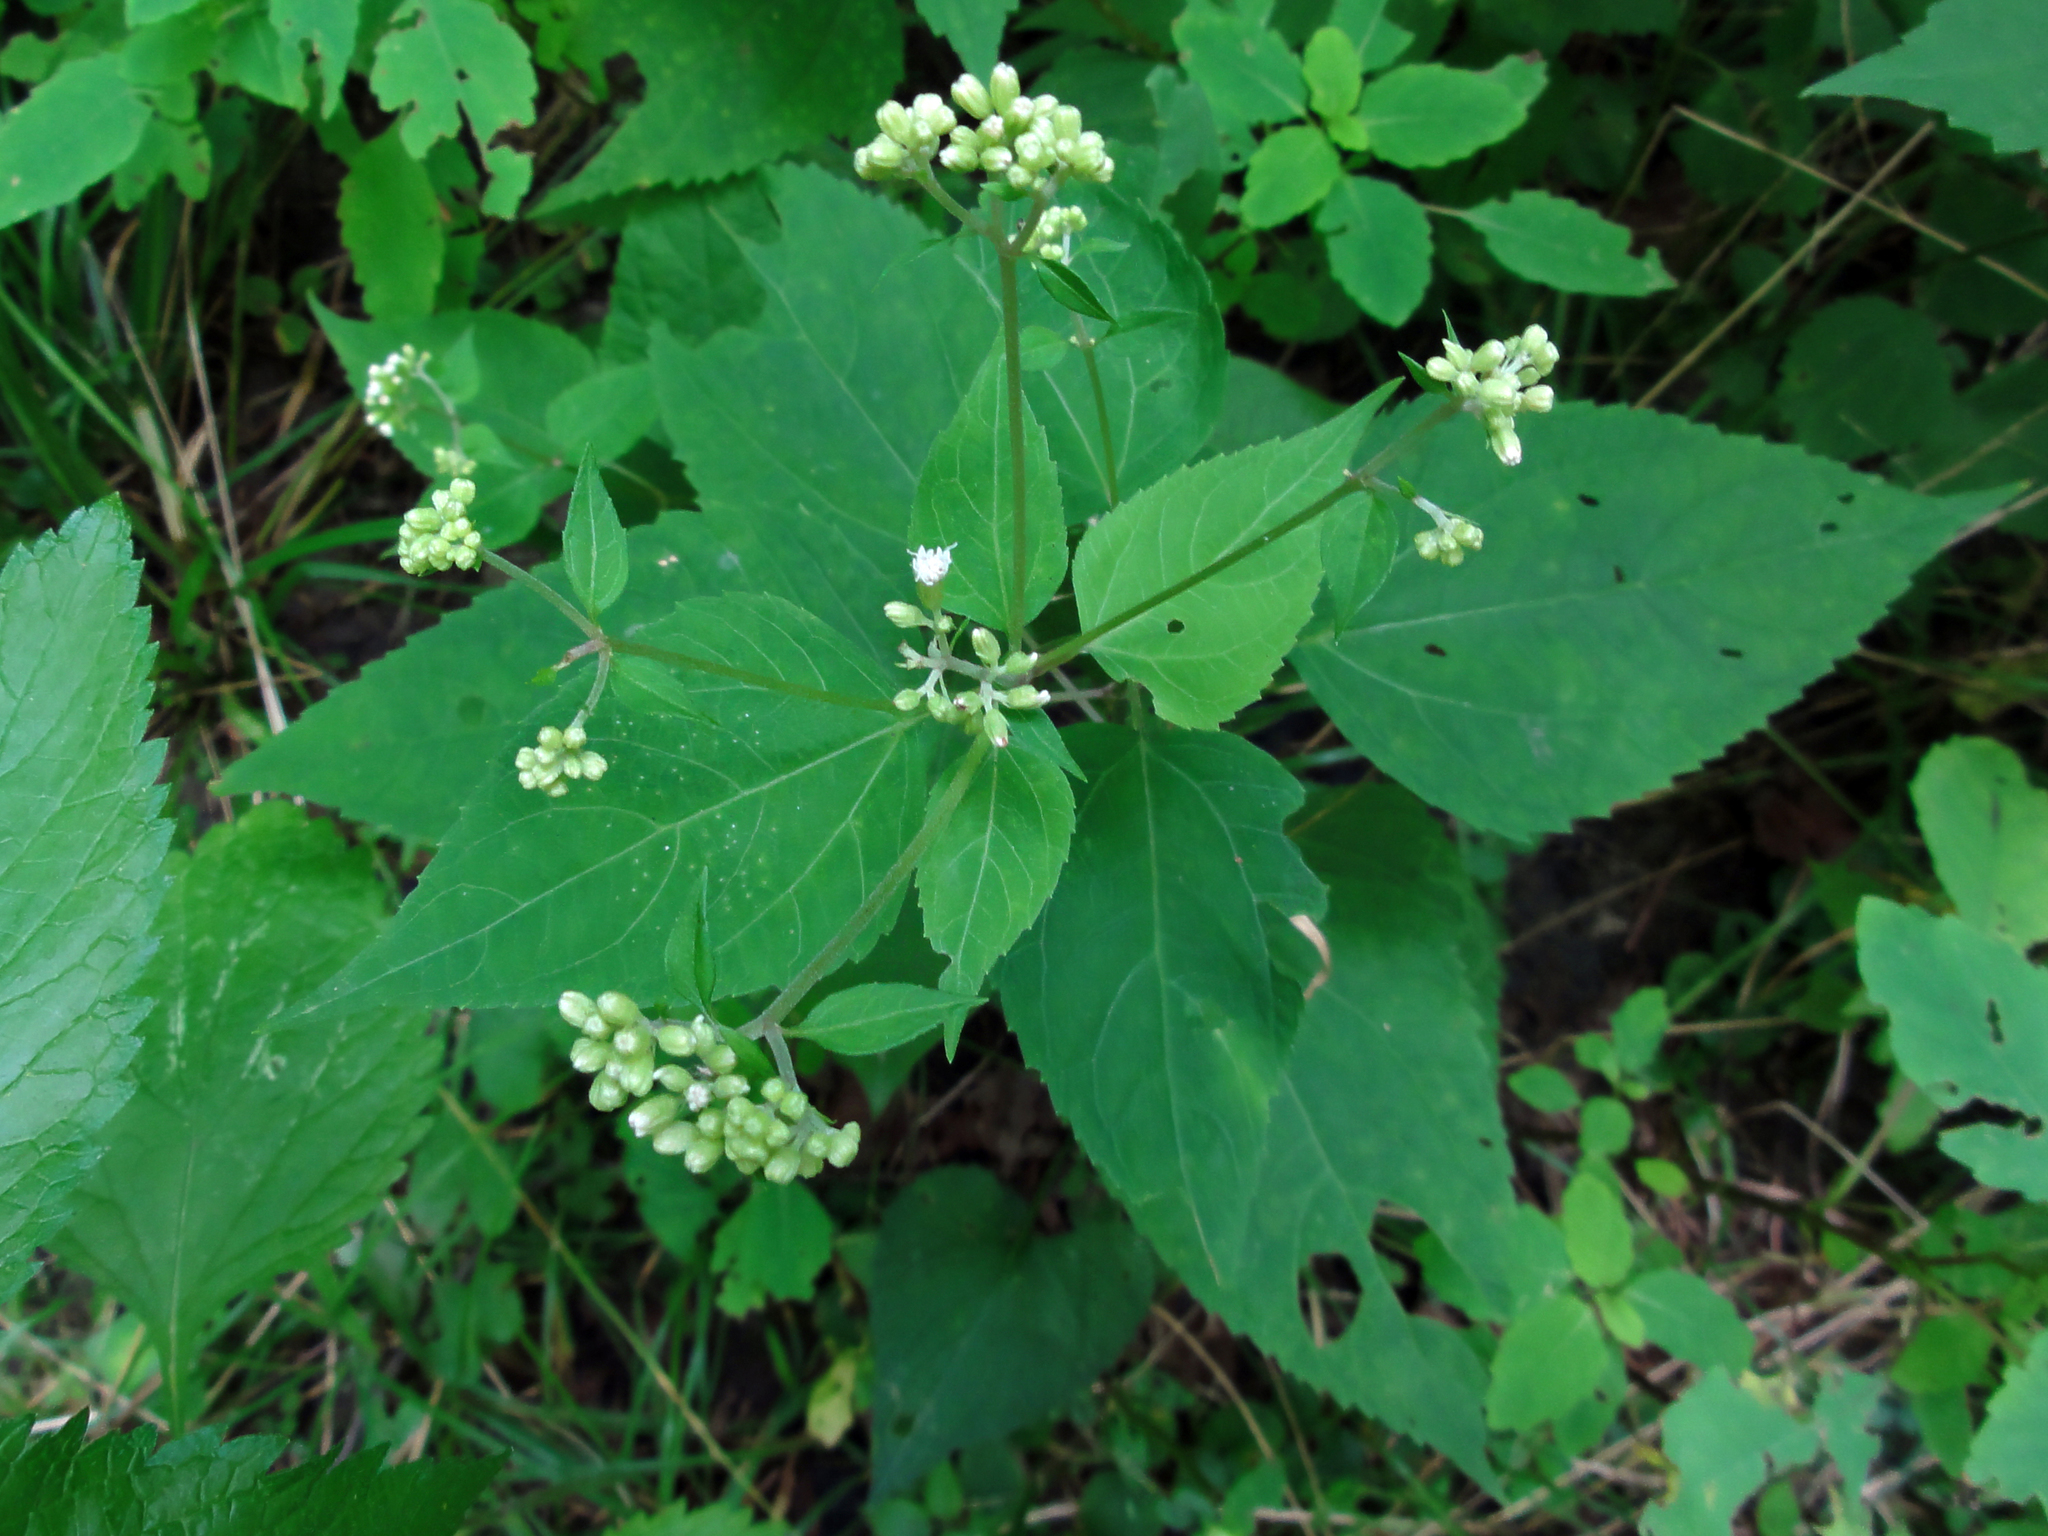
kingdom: Plantae
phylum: Tracheophyta
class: Magnoliopsida
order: Asterales
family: Asteraceae
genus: Ageratina
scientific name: Ageratina altissima
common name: White snakeroot
